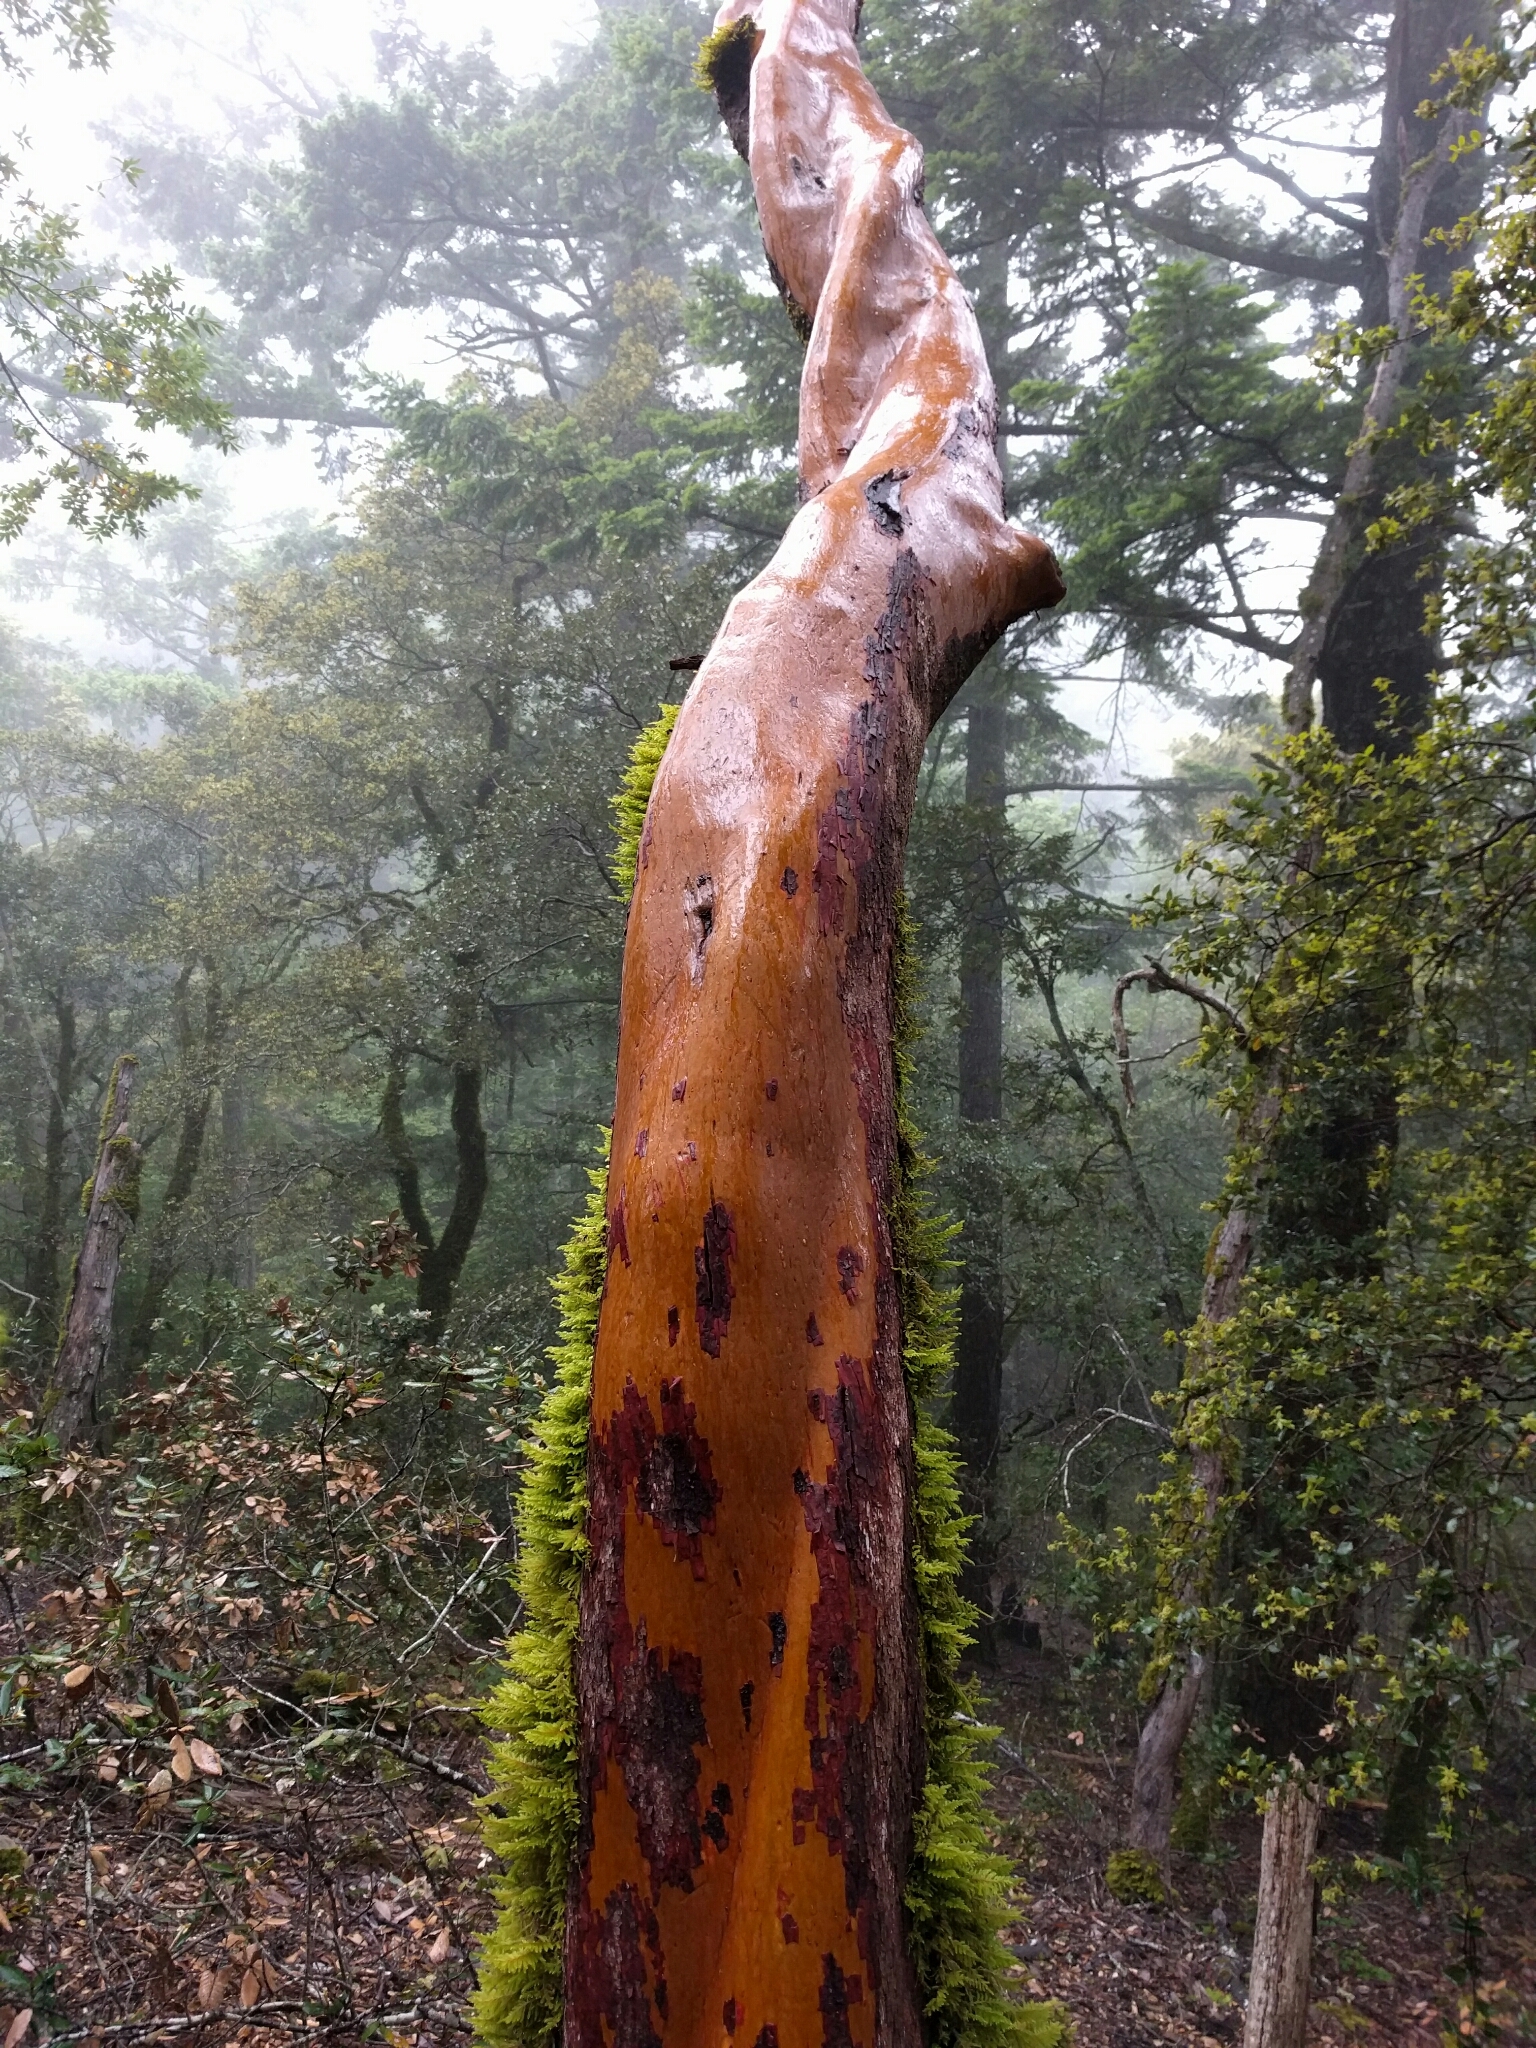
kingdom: Plantae
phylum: Tracheophyta
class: Magnoliopsida
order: Ericales
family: Ericaceae
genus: Arbutus
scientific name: Arbutus menziesii
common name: Pacific madrone
